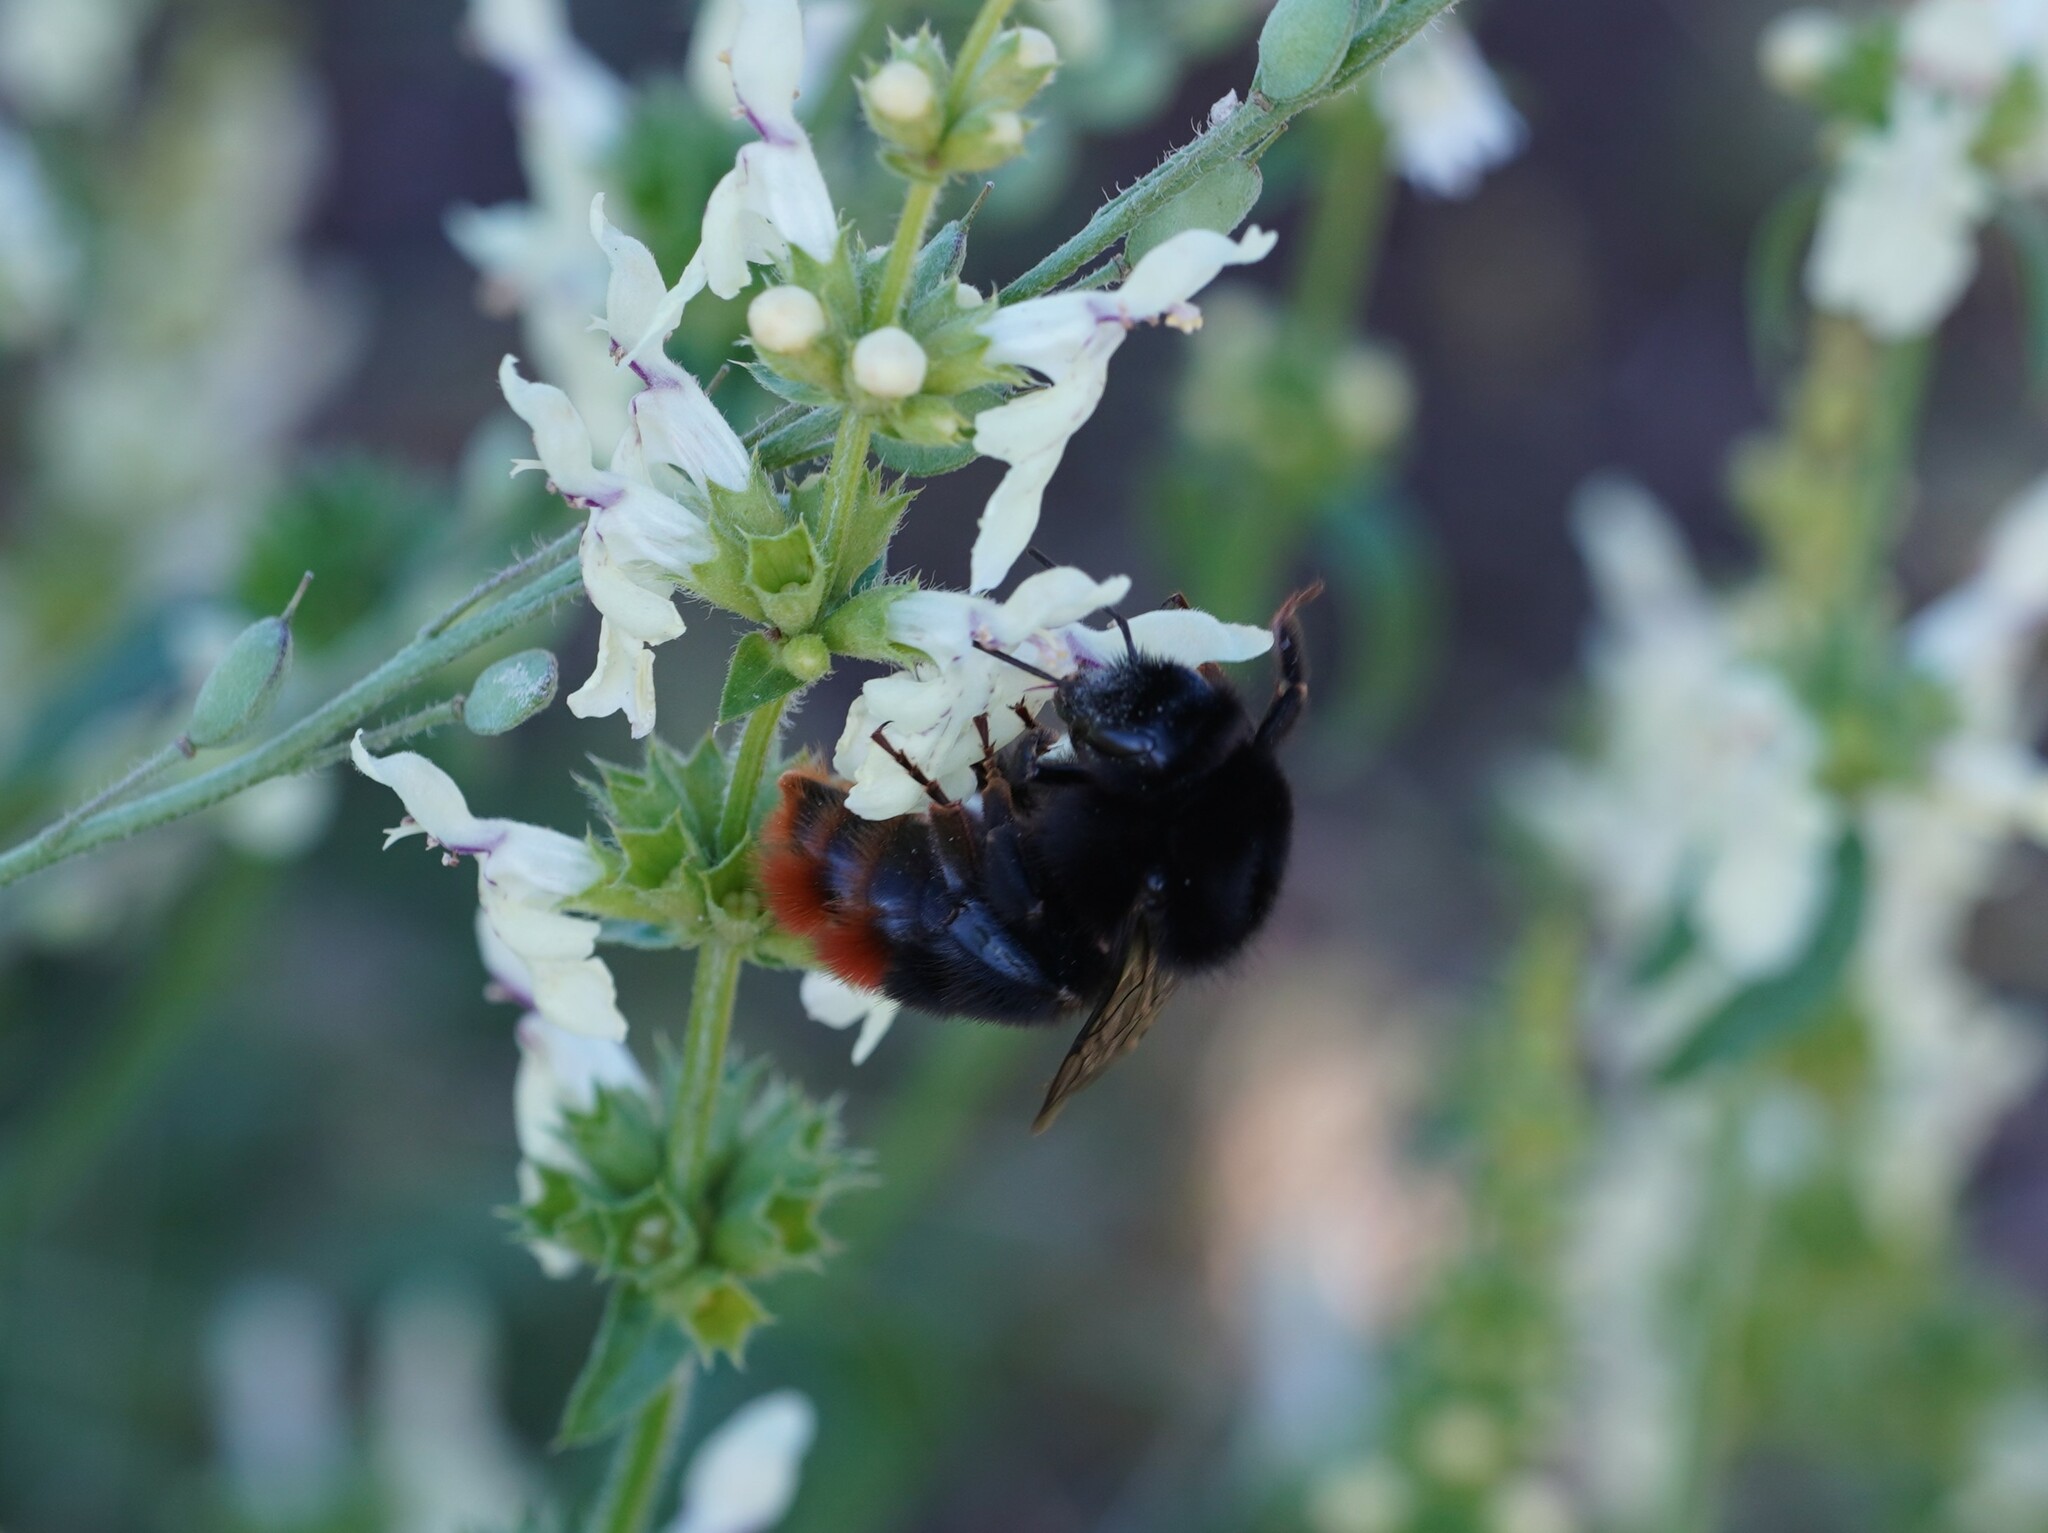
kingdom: Animalia
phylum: Arthropoda
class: Insecta
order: Hymenoptera
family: Apidae
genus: Bombus
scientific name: Bombus lapidarius
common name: Large red-tailed humble-bee
